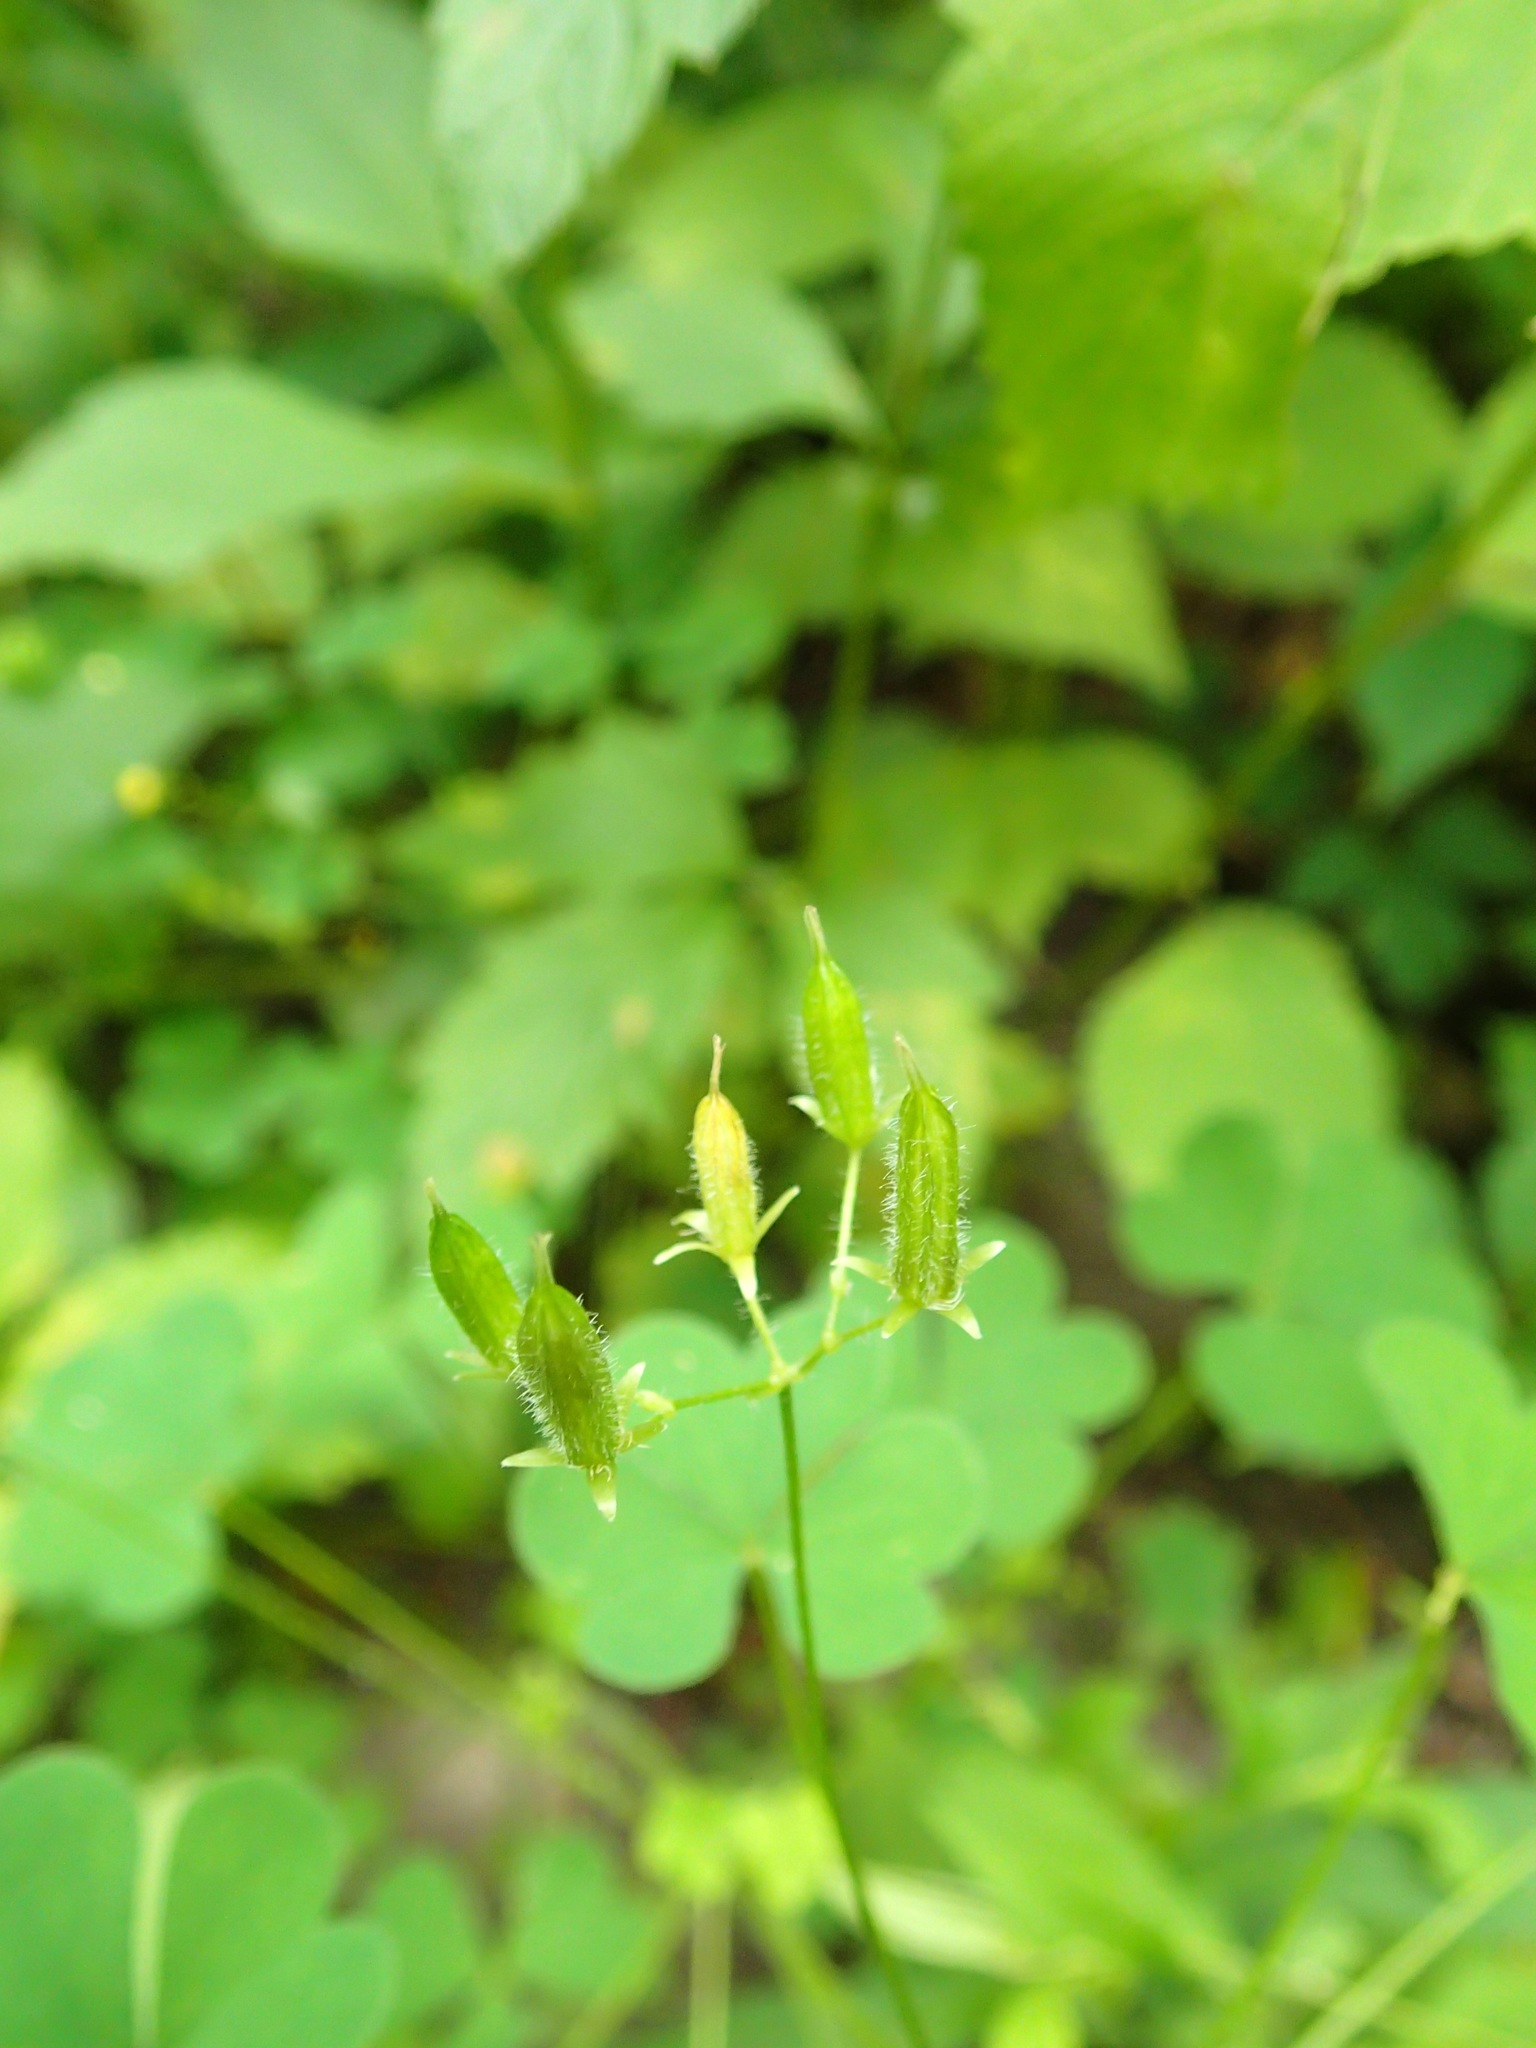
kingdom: Plantae
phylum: Tracheophyta
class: Magnoliopsida
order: Oxalidales
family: Oxalidaceae
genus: Oxalis
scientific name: Oxalis stricta
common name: Upright yellow-sorrel
